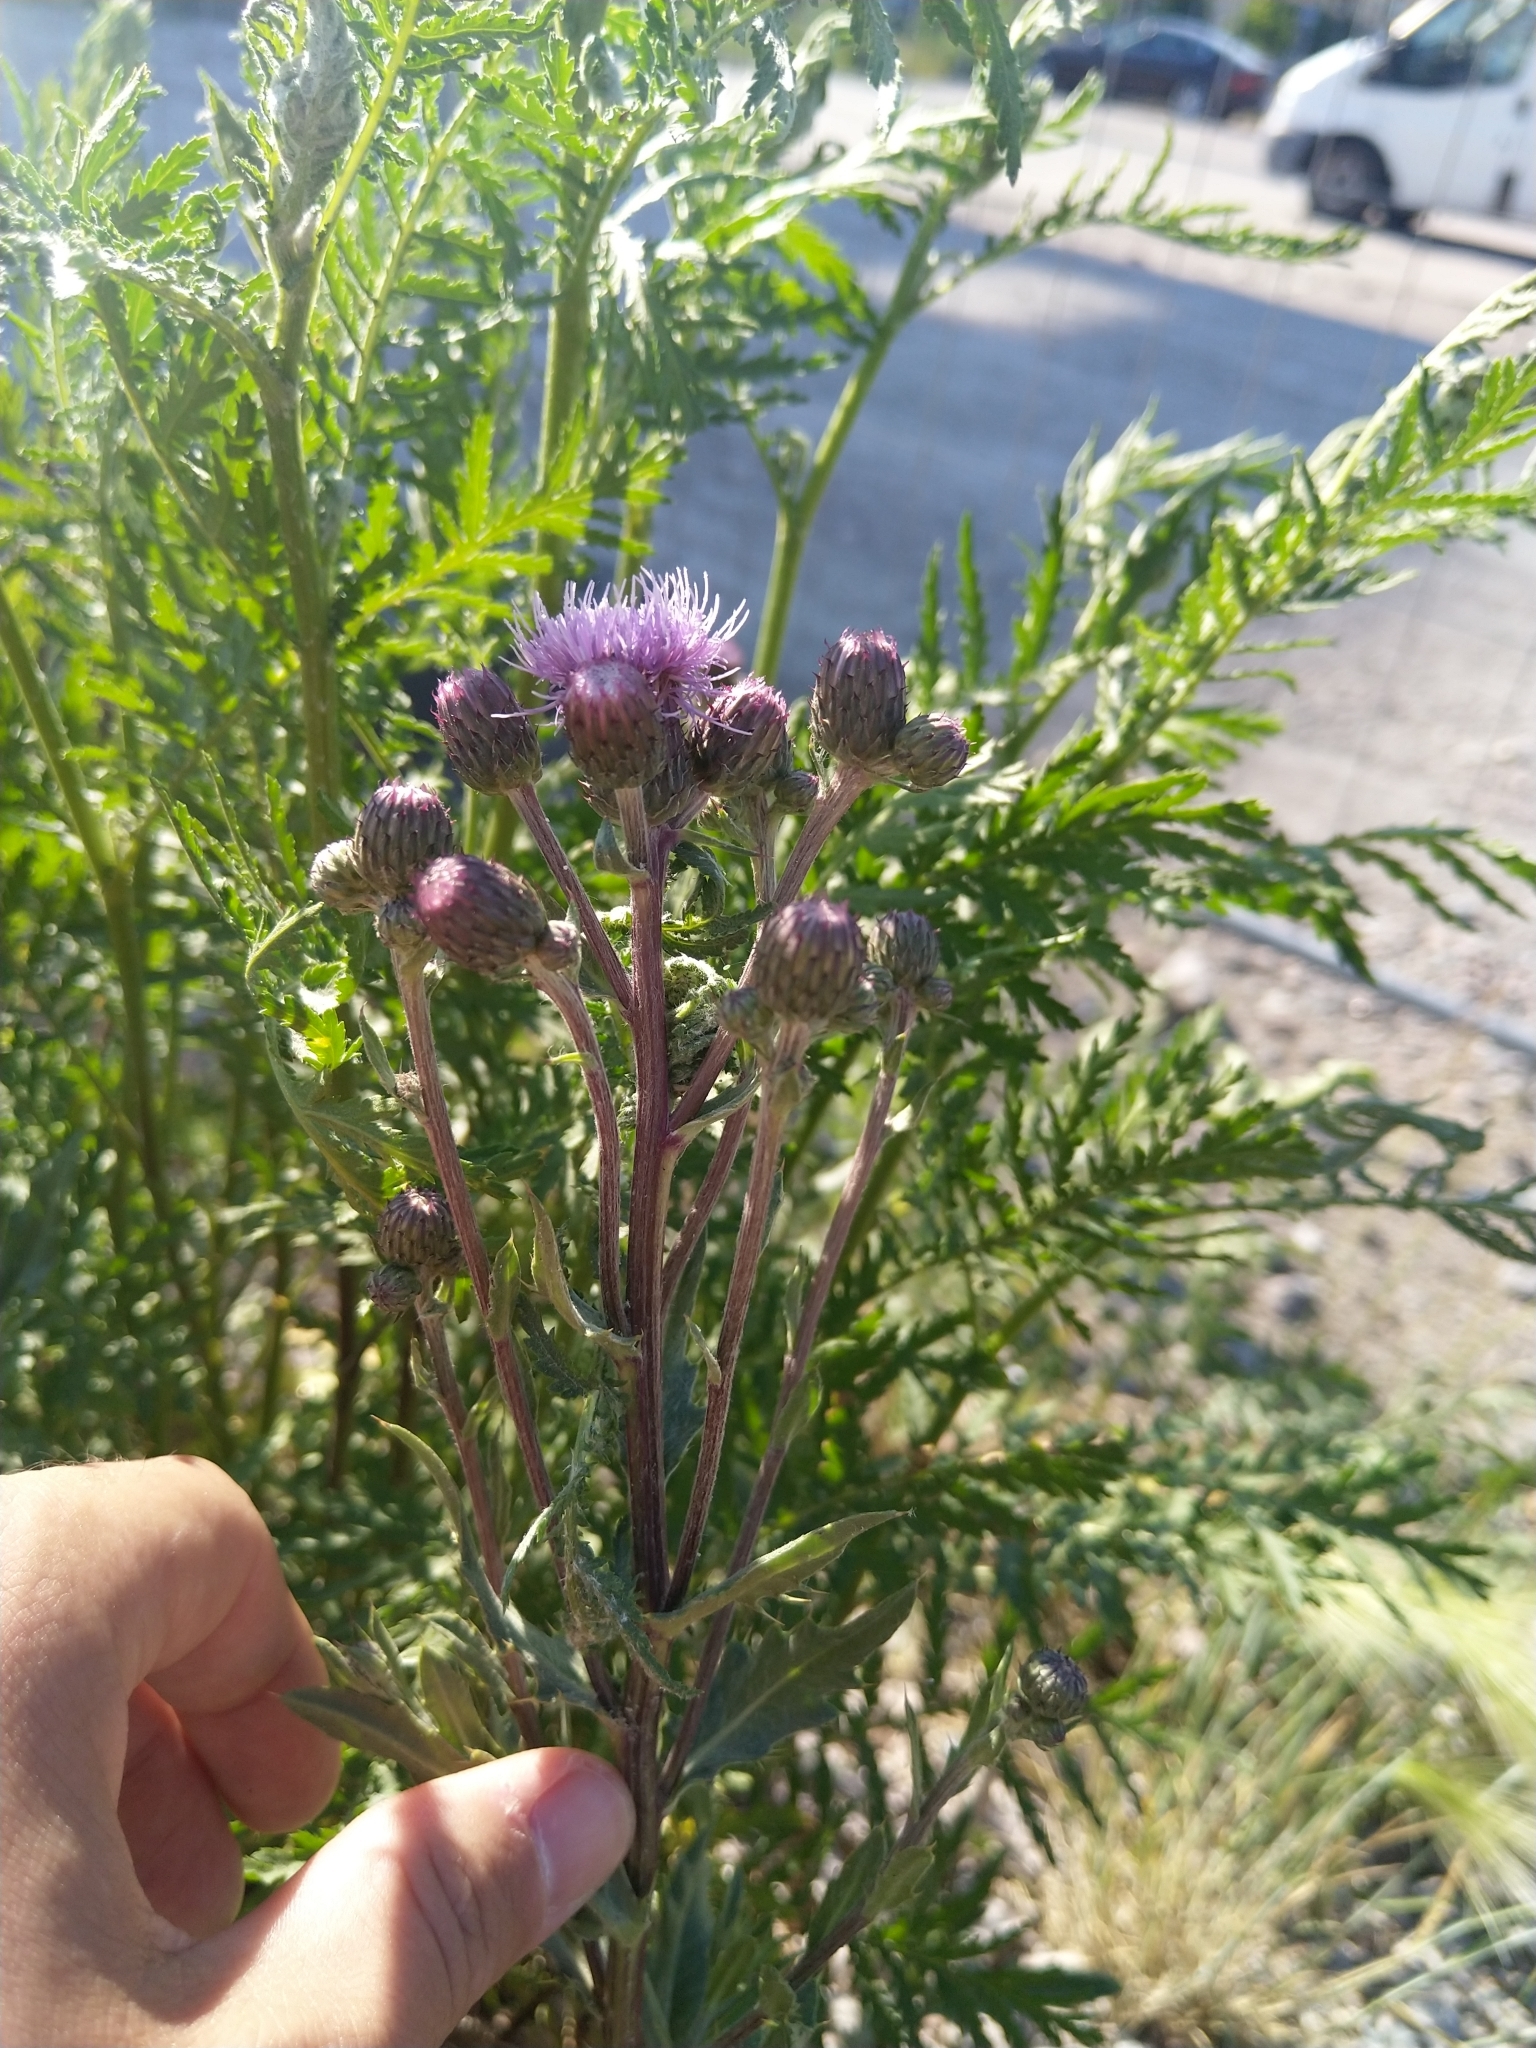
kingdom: Plantae
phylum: Tracheophyta
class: Magnoliopsida
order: Asterales
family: Asteraceae
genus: Cirsium
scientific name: Cirsium arvense
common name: Creeping thistle
